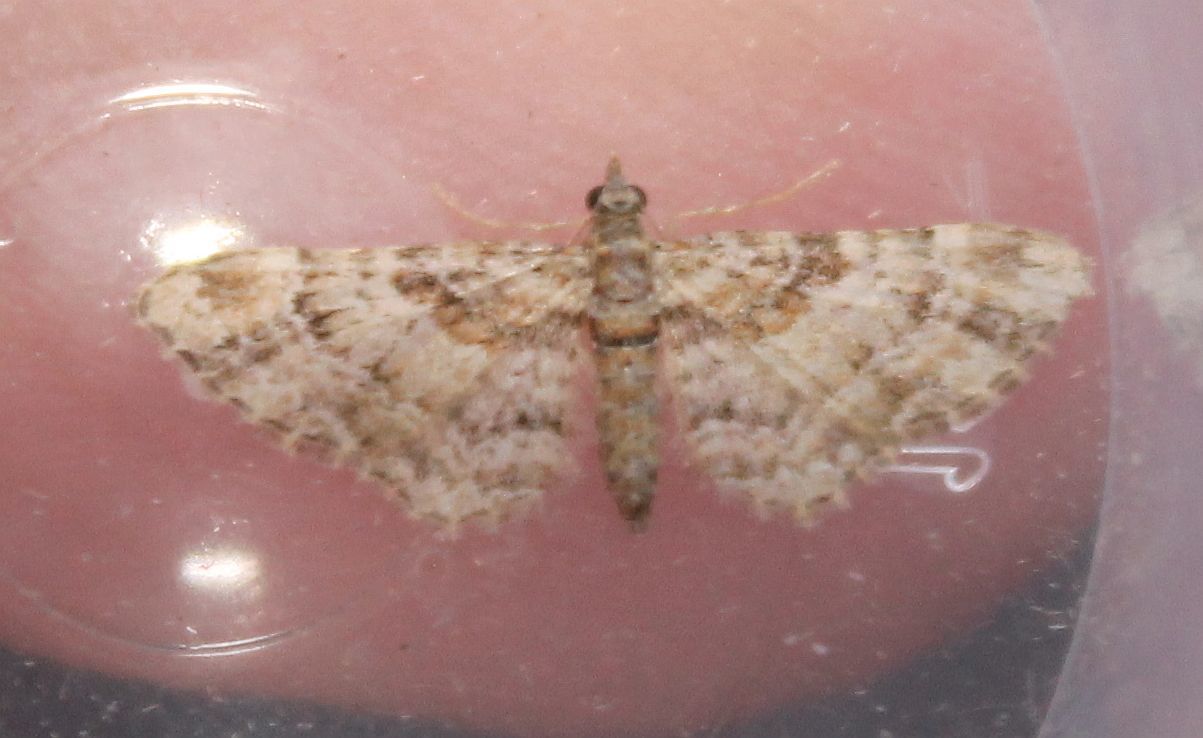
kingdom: Animalia
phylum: Arthropoda
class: Insecta
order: Lepidoptera
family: Geometridae
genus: Gymnoscelis
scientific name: Gymnoscelis rufifasciata
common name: Double-striped pug
